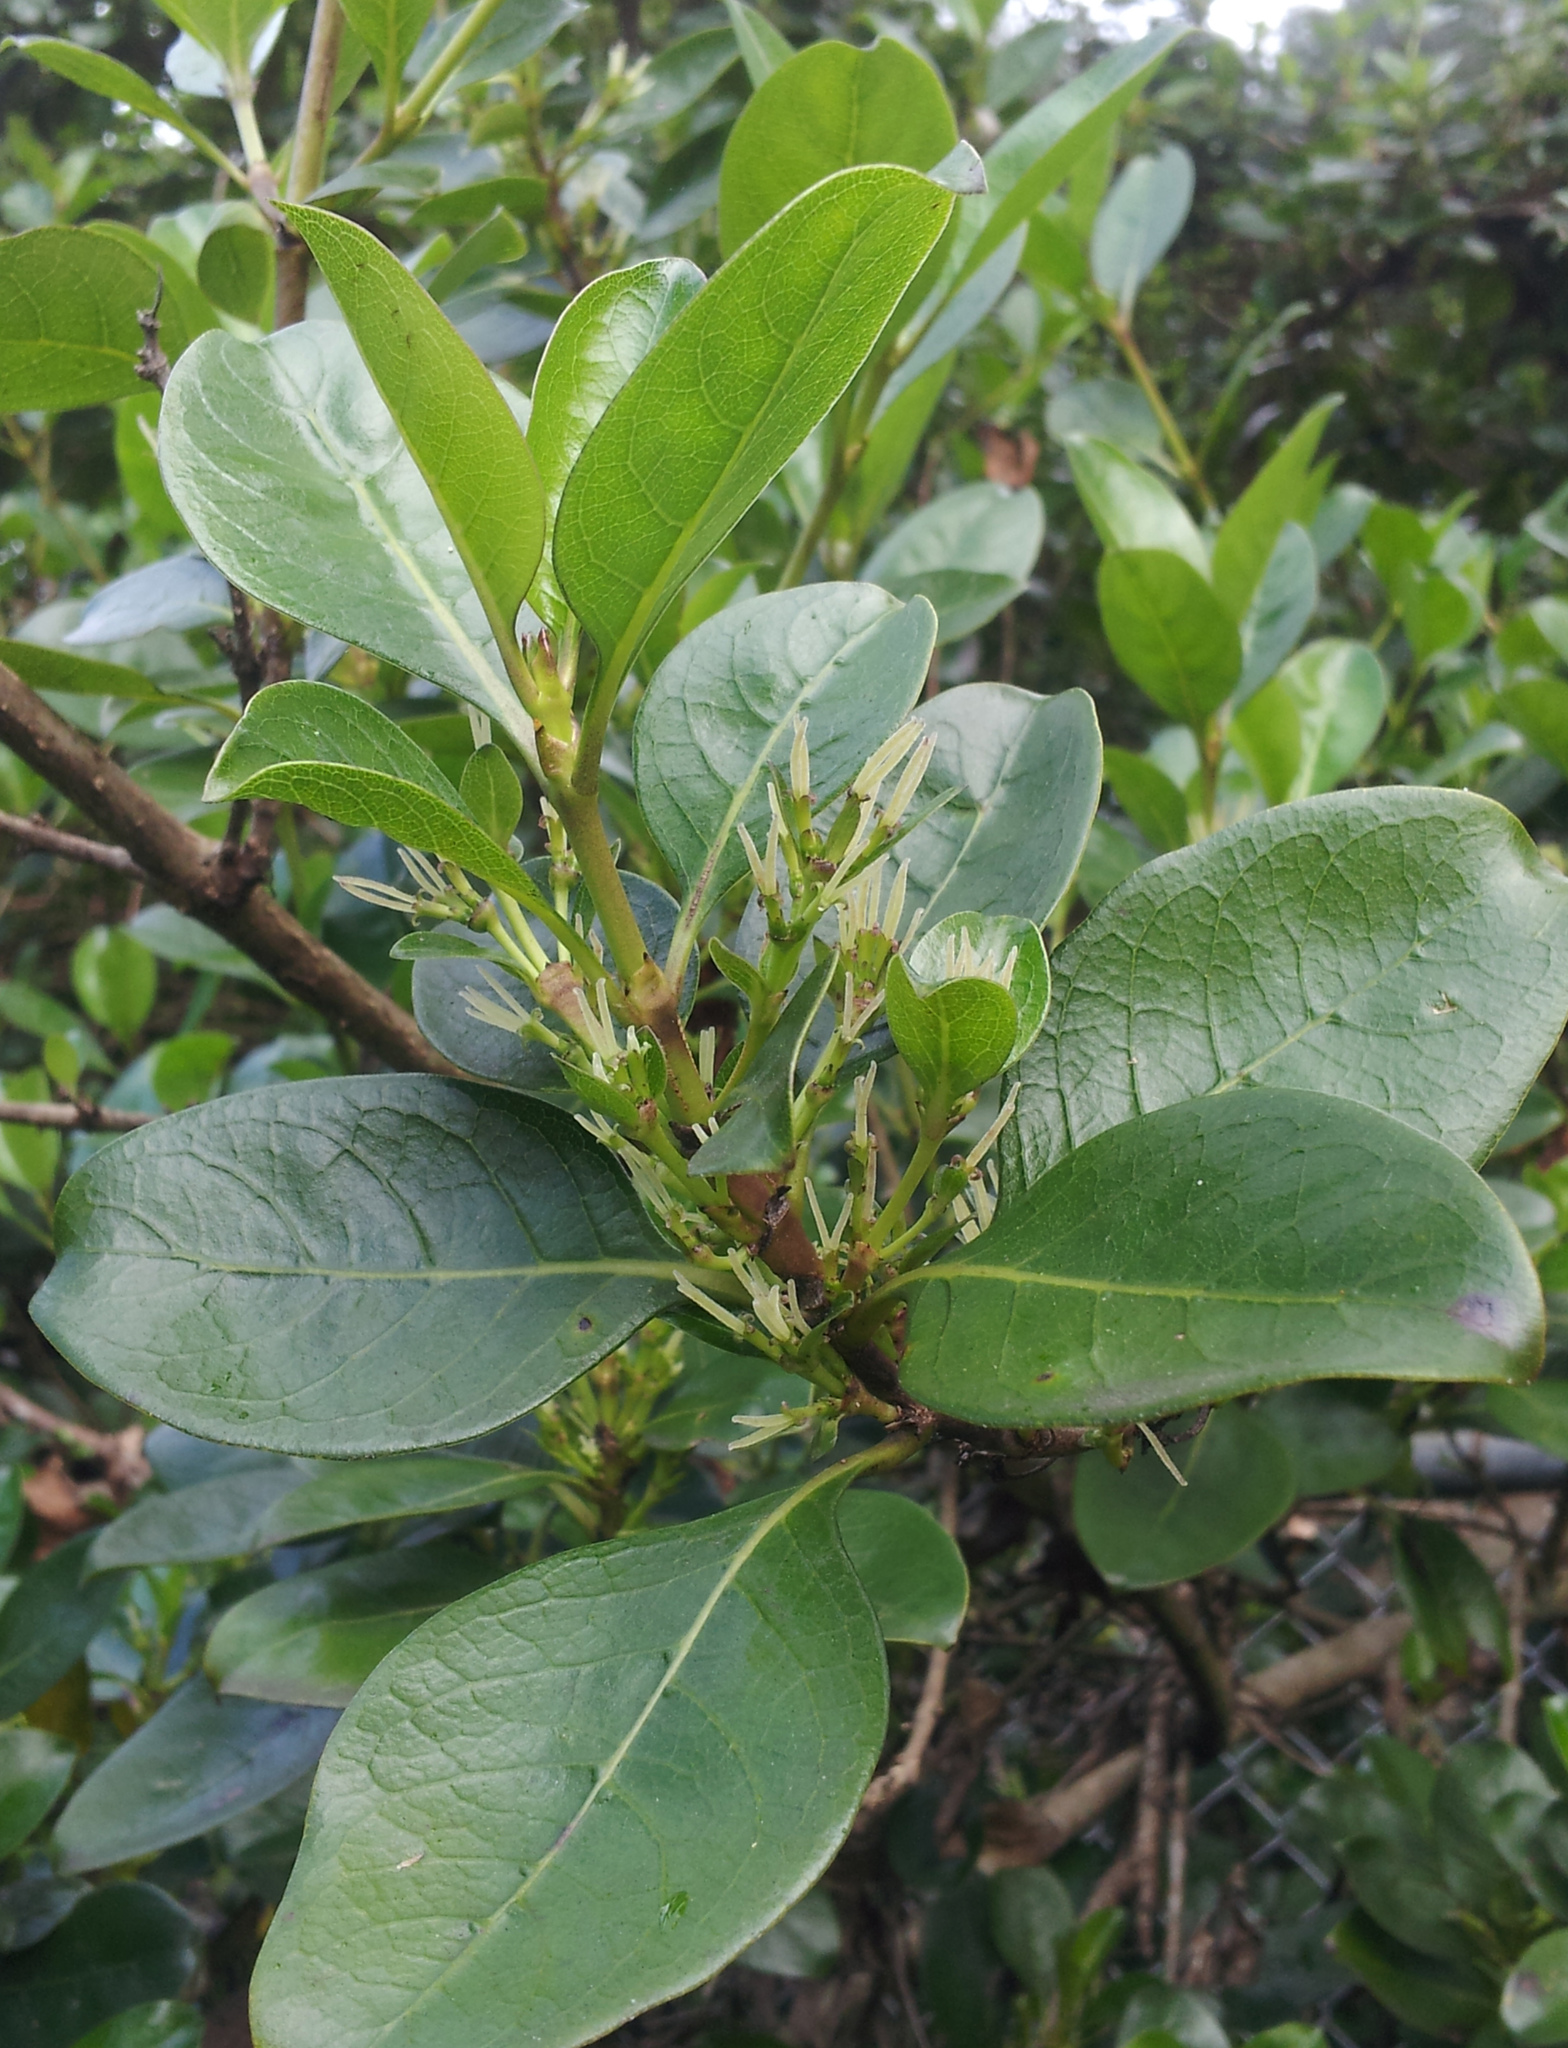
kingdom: Plantae
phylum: Tracheophyta
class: Magnoliopsida
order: Gentianales
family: Rubiaceae
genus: Coprosma
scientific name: Coprosma macrocarpa
